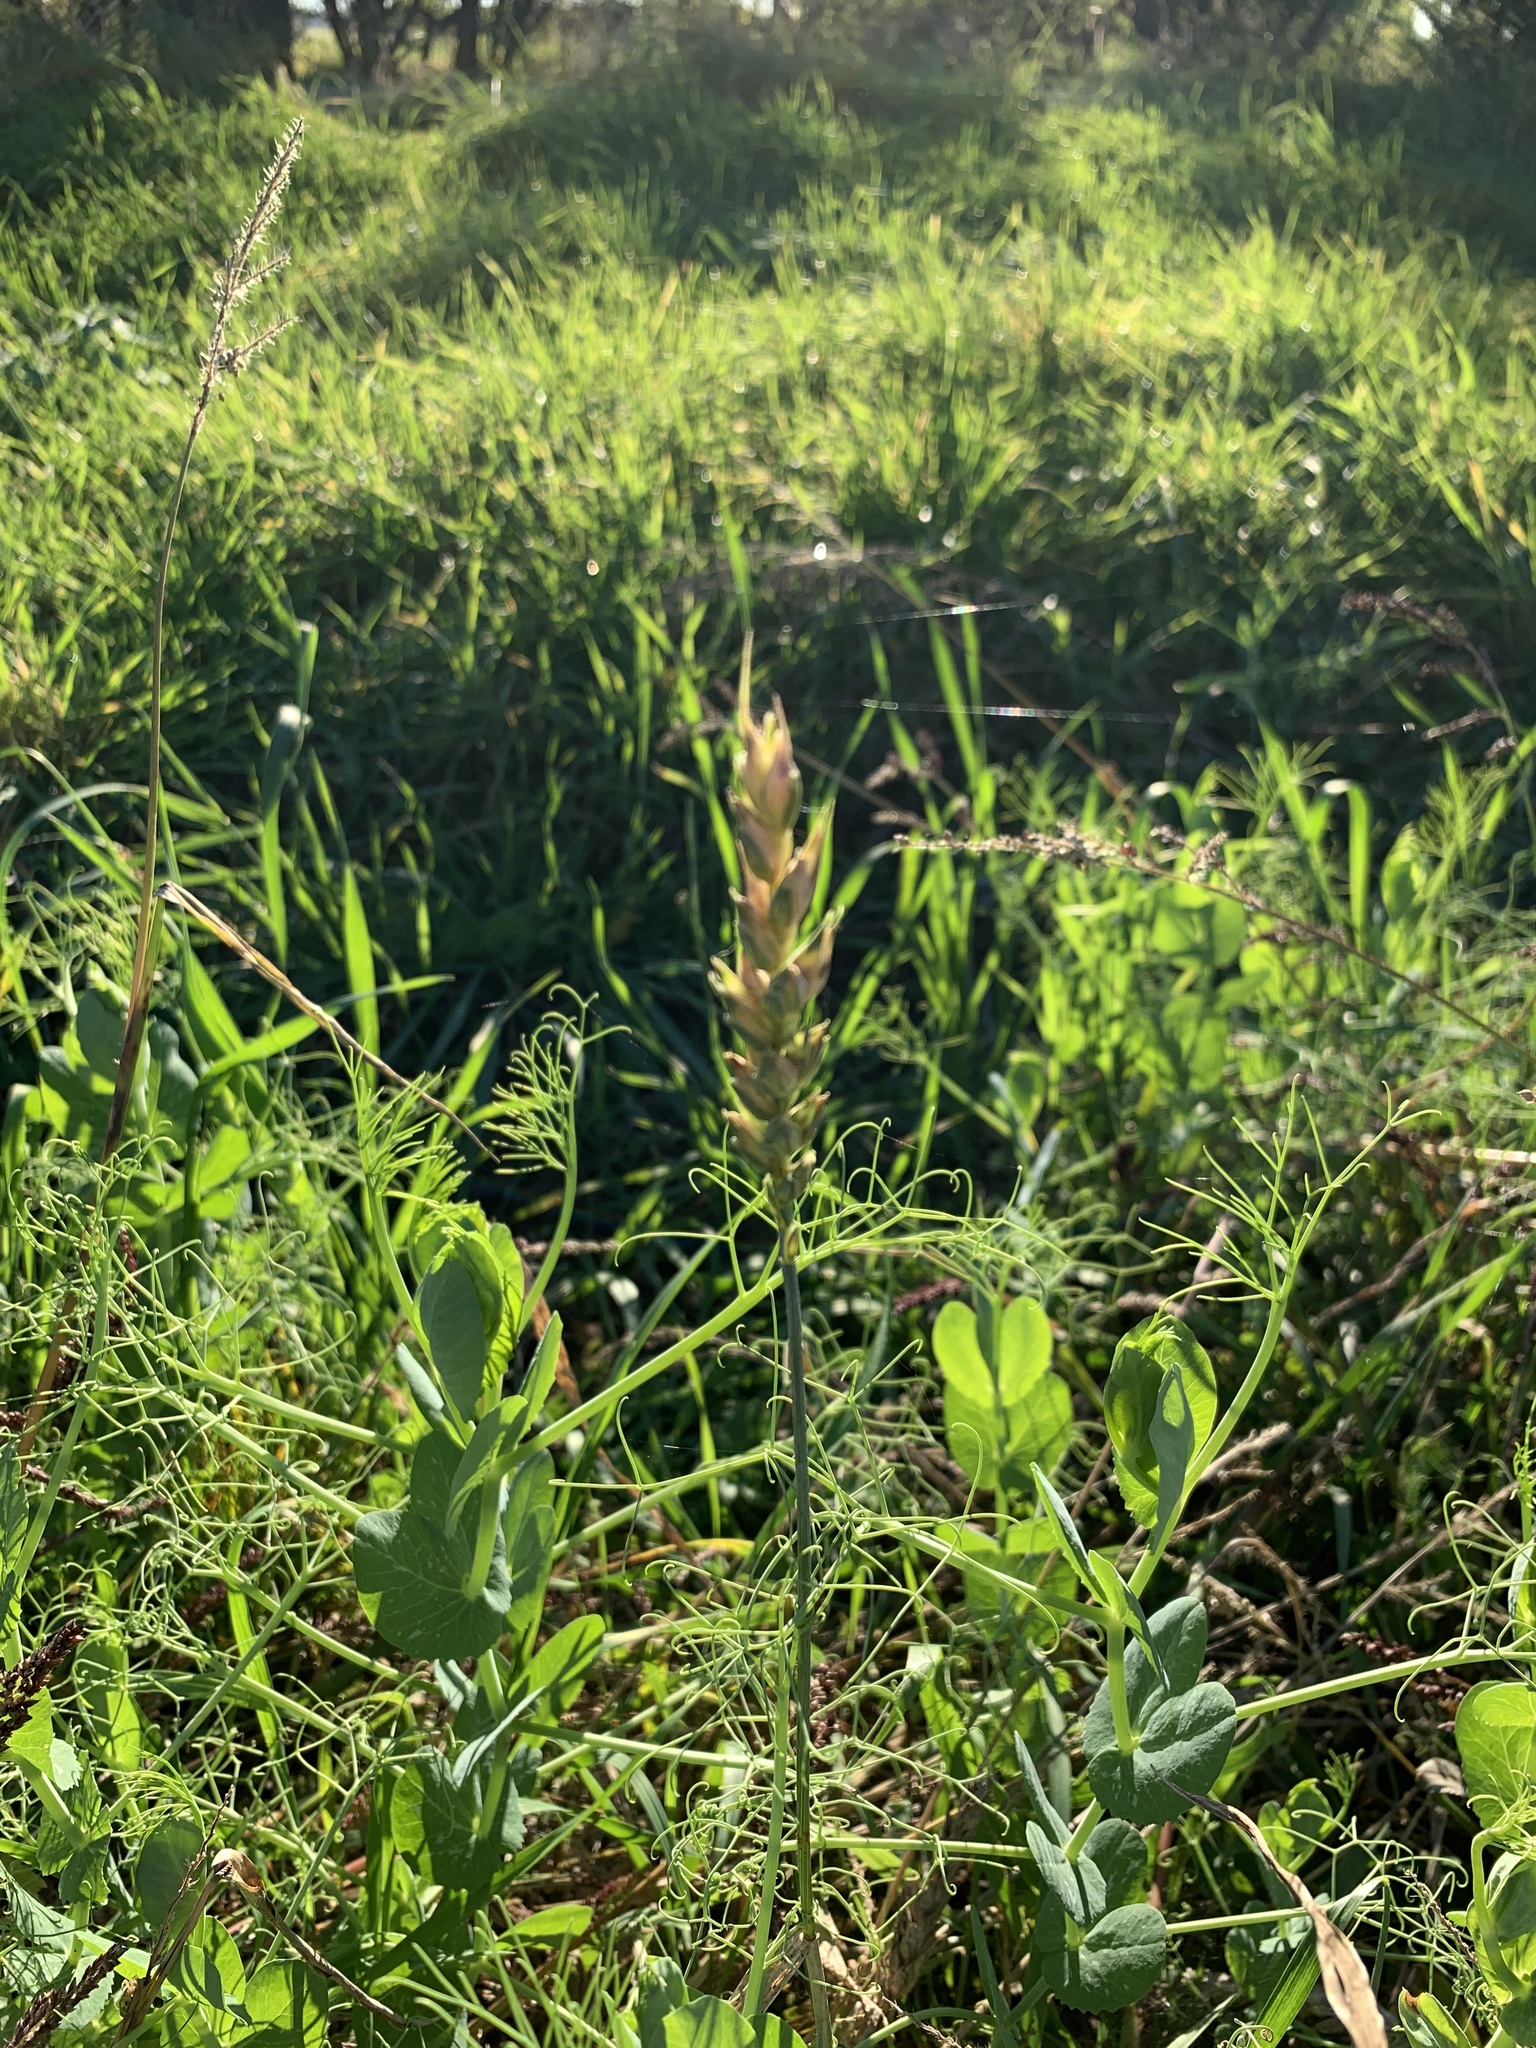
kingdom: Plantae
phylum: Tracheophyta
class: Liliopsida
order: Poales
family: Poaceae
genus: Triticum
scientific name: Triticum aestivum
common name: Common wheat
